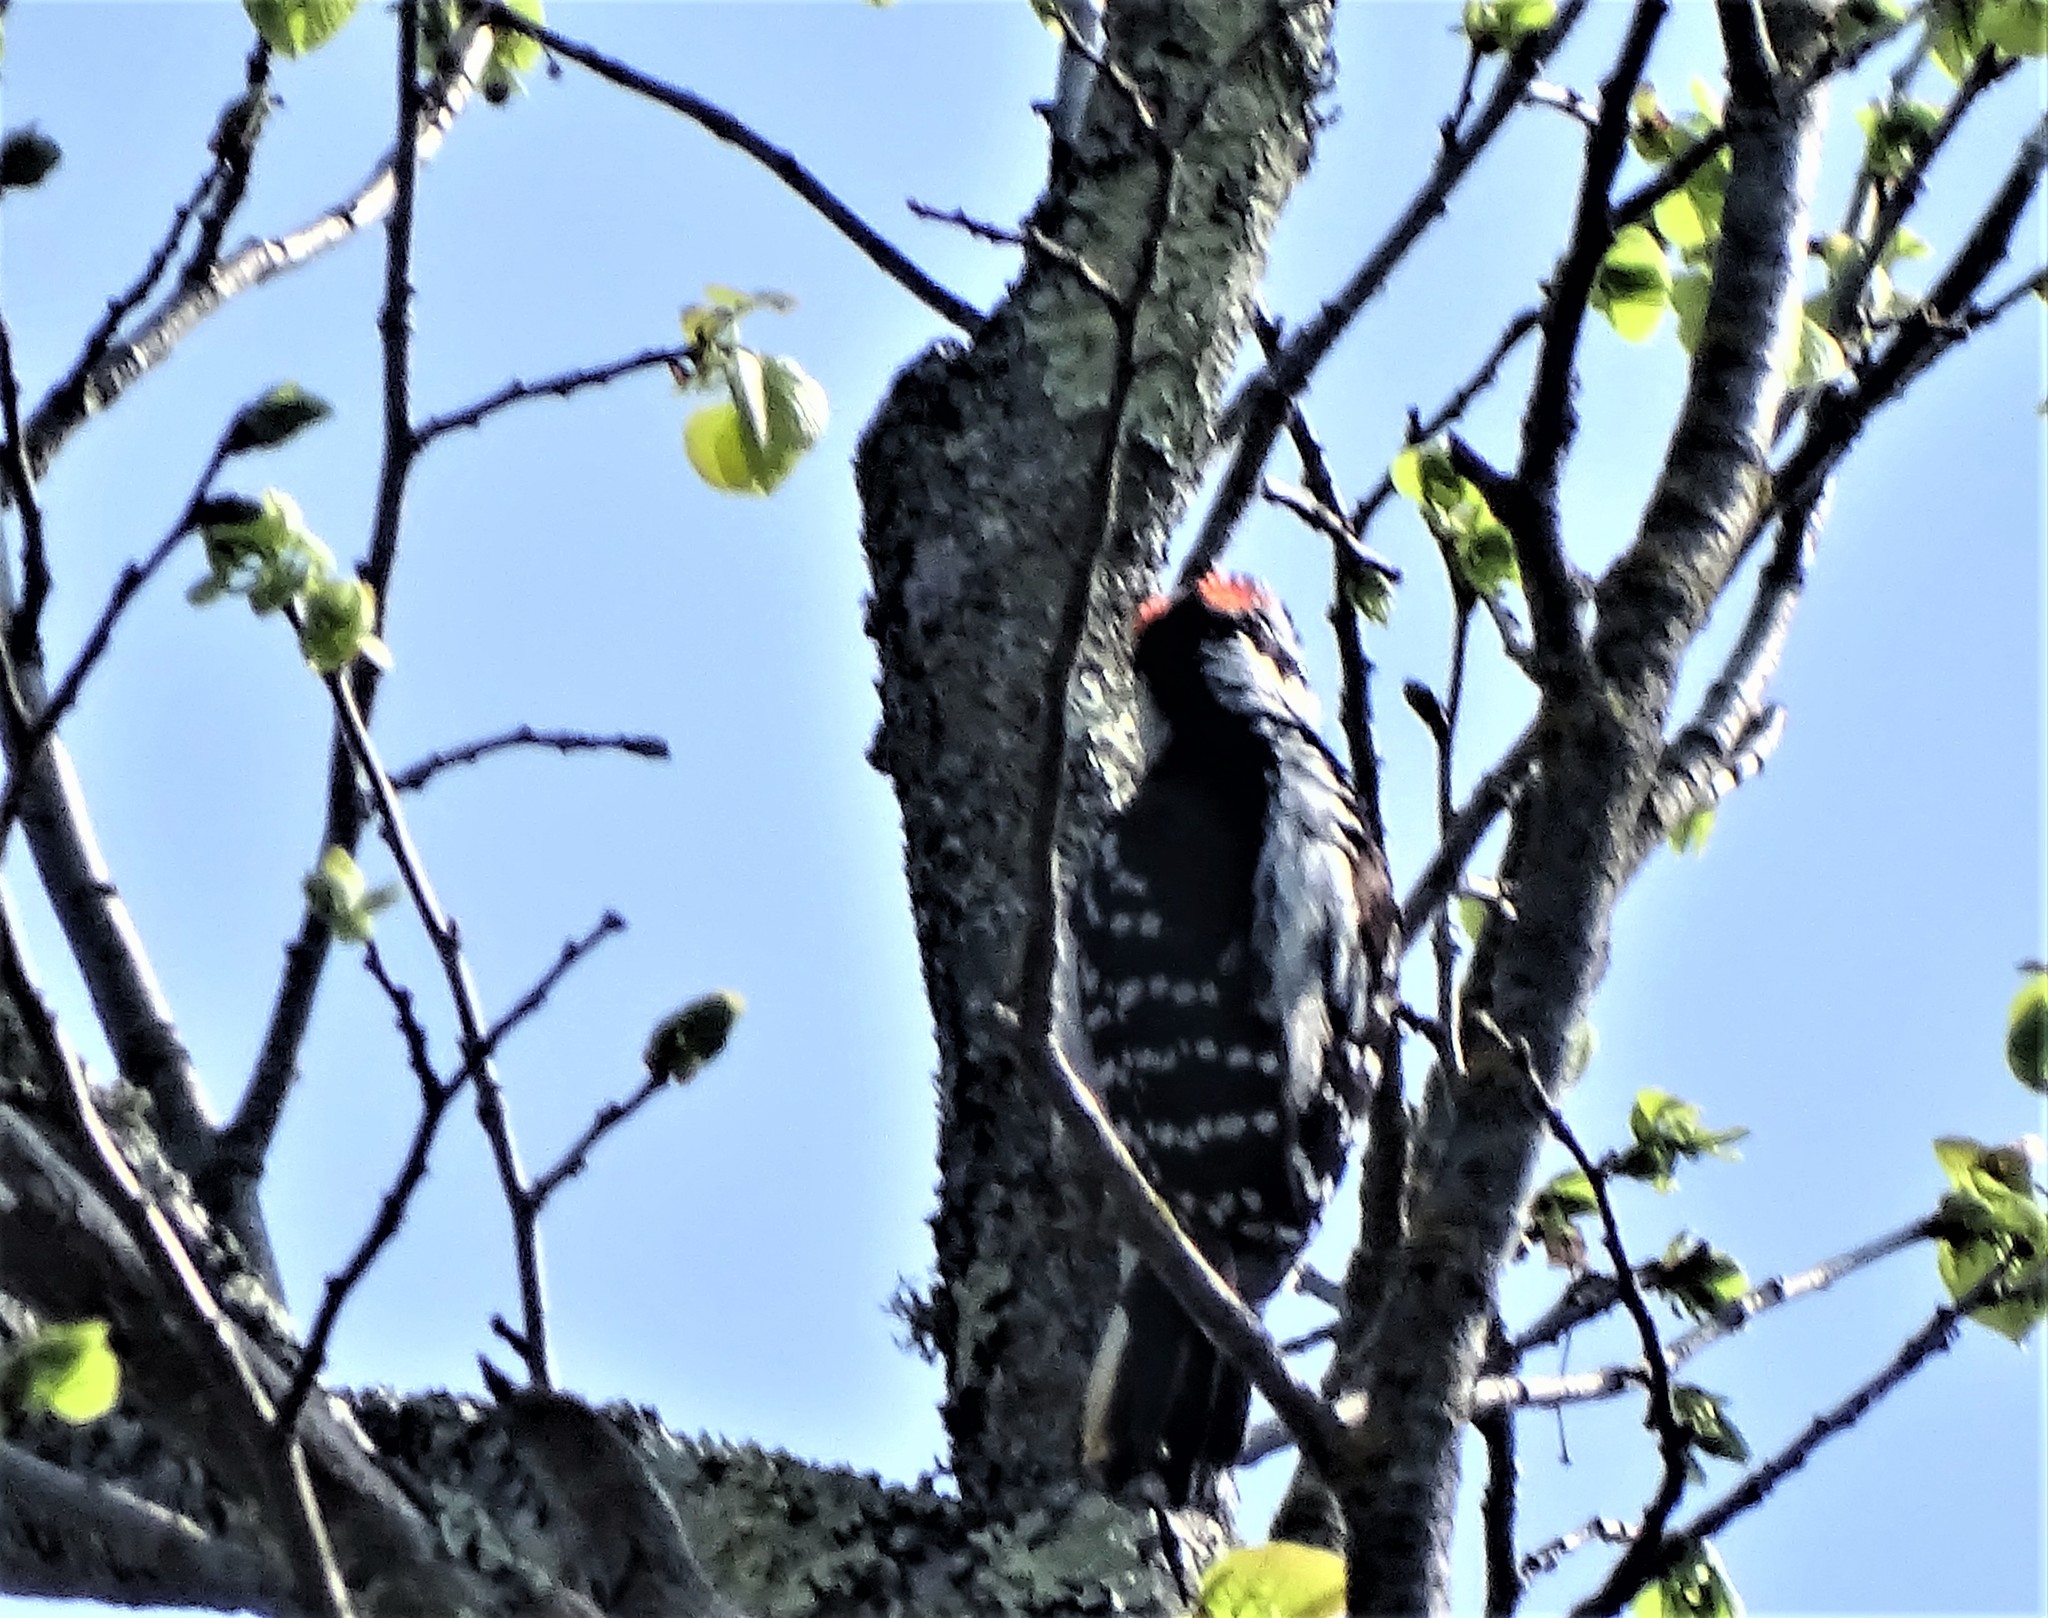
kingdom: Animalia
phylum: Chordata
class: Aves
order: Piciformes
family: Picidae
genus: Leuconotopicus
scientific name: Leuconotopicus villosus
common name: Hairy woodpecker
